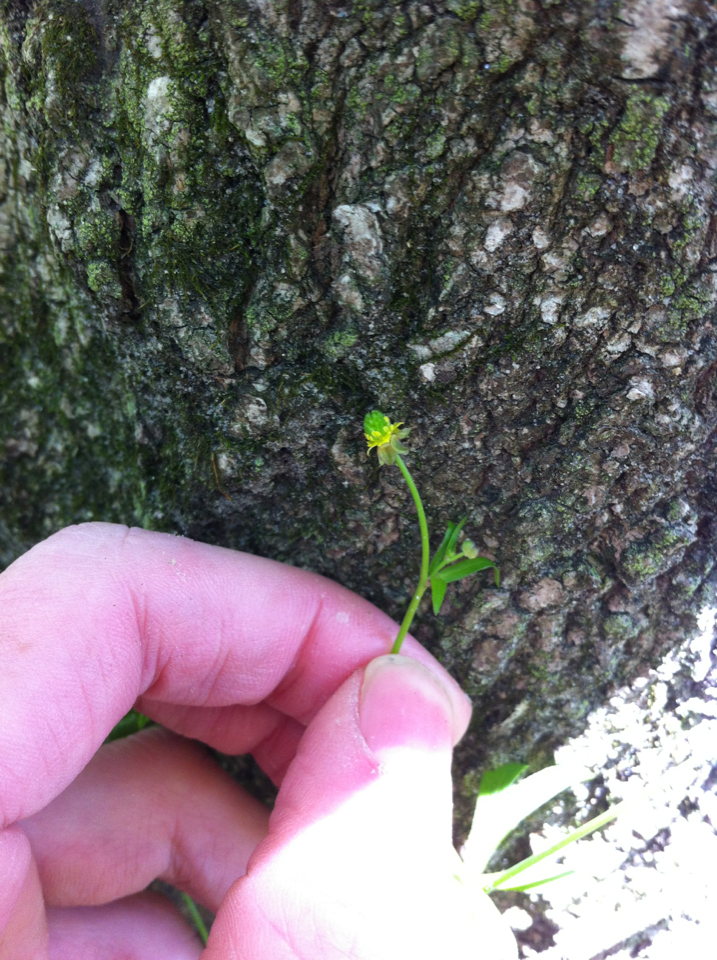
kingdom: Plantae
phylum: Tracheophyta
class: Magnoliopsida
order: Ranunculales
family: Ranunculaceae
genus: Ranunculus
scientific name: Ranunculus abortivus
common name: Early wood buttercup
